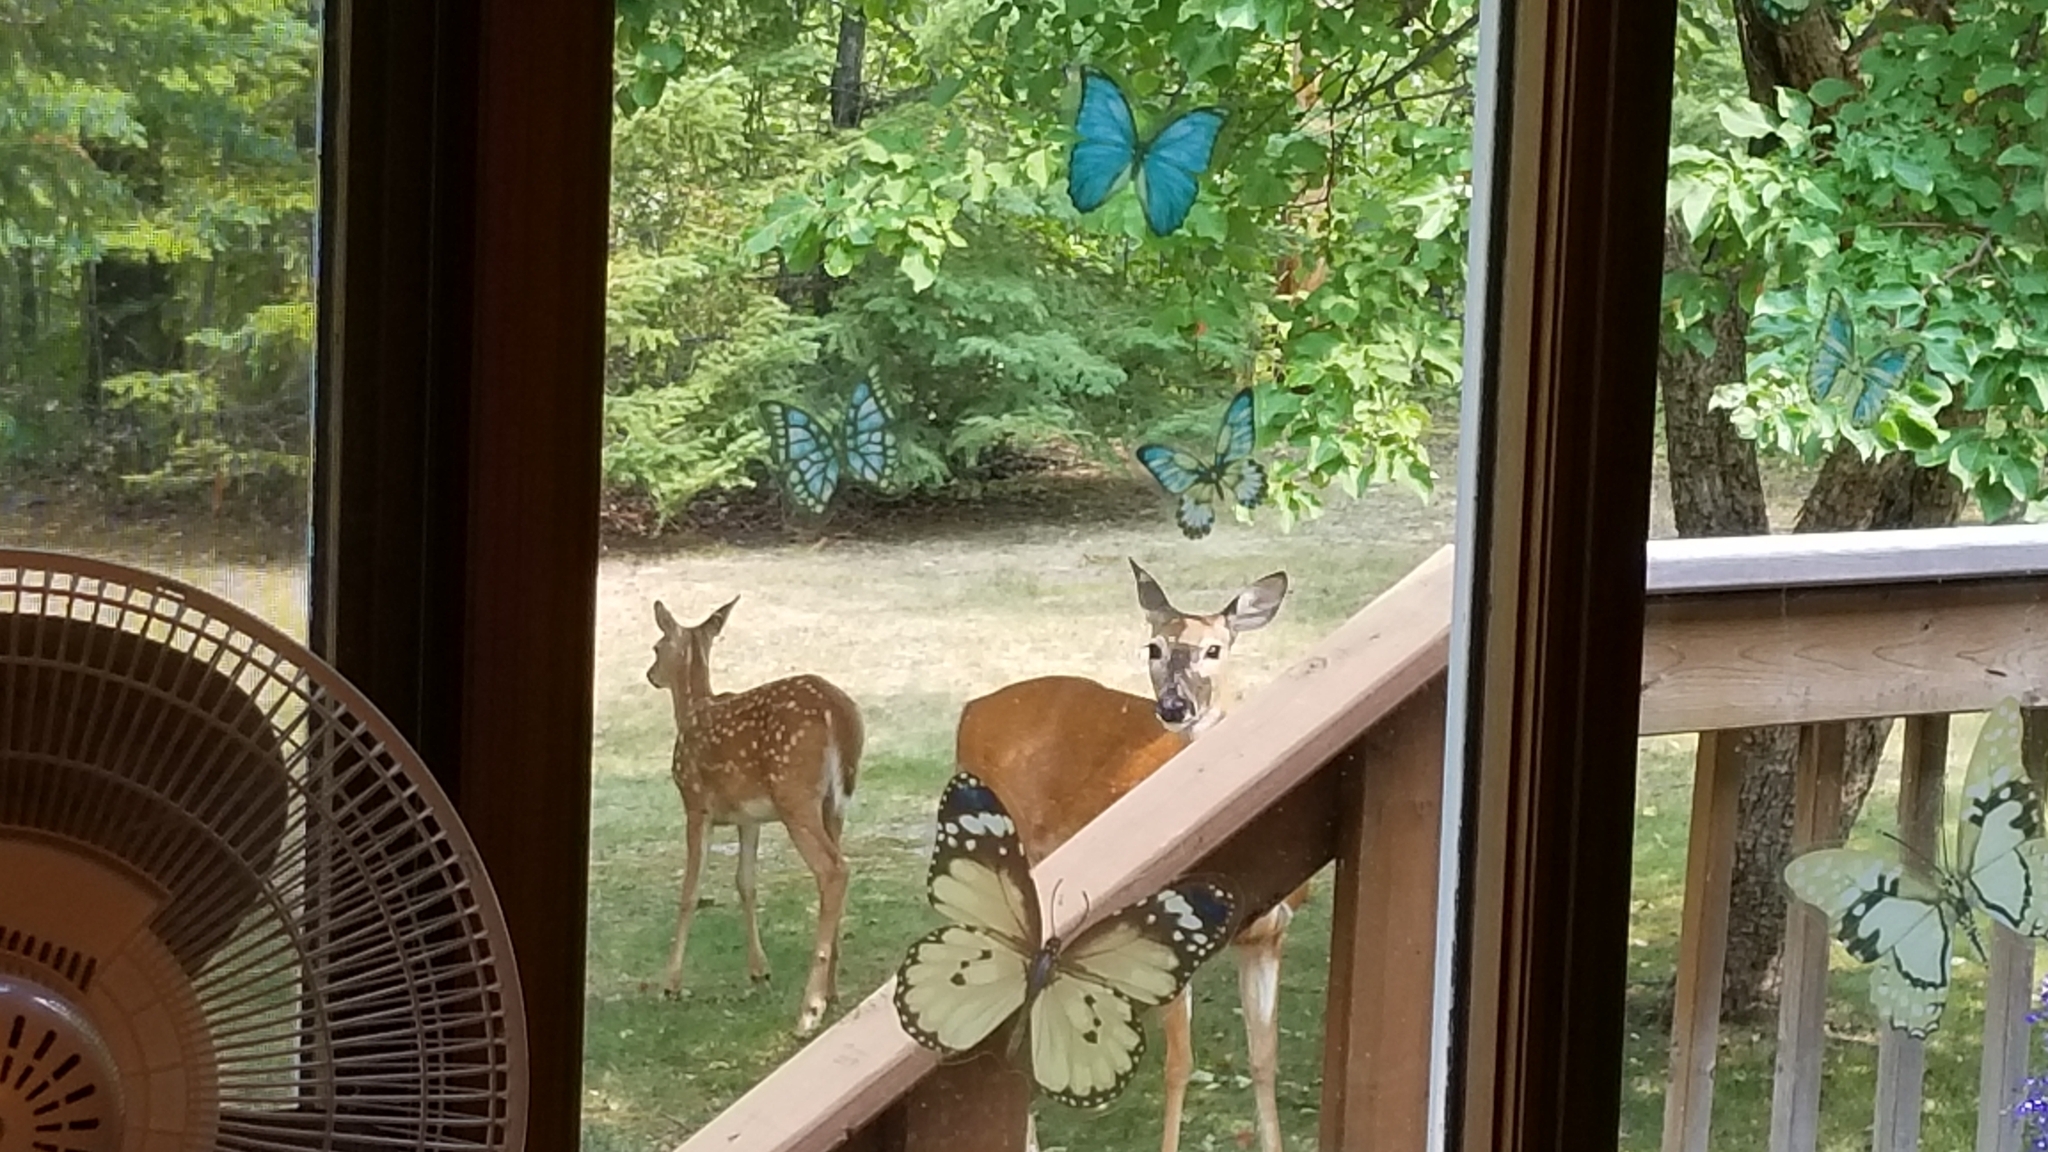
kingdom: Animalia
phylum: Chordata
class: Mammalia
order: Artiodactyla
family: Cervidae
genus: Odocoileus
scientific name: Odocoileus virginianus
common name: White-tailed deer
